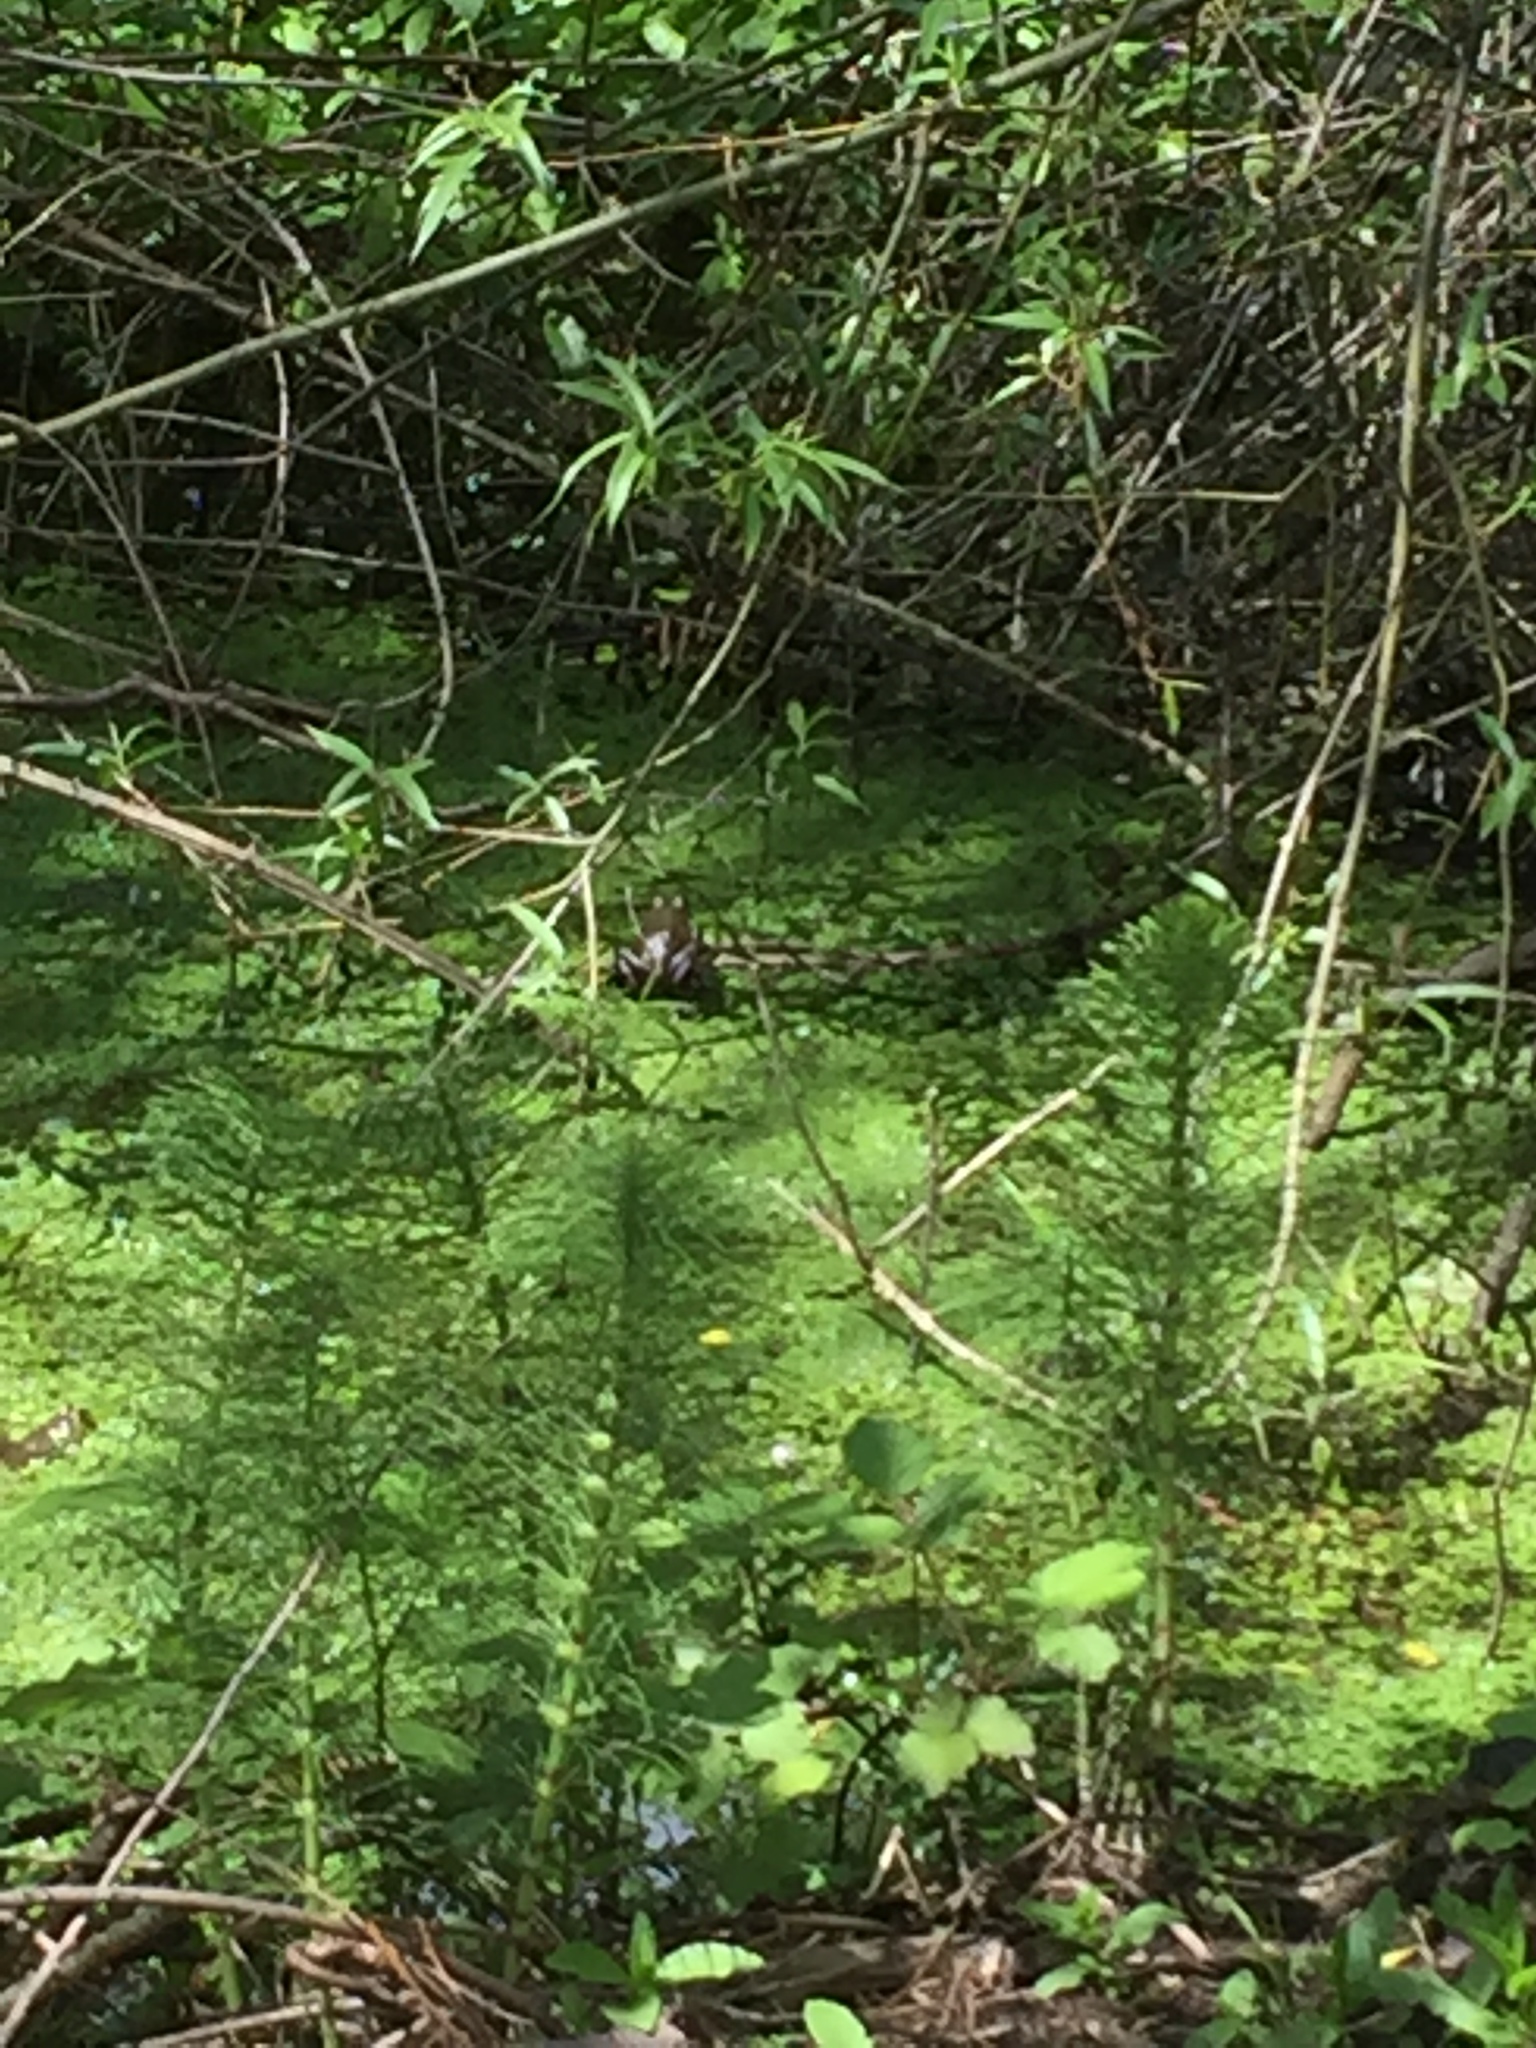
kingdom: Animalia
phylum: Chordata
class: Amphibia
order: Anura
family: Ranidae
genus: Lithobates
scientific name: Lithobates catesbeianus
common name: American bullfrog
